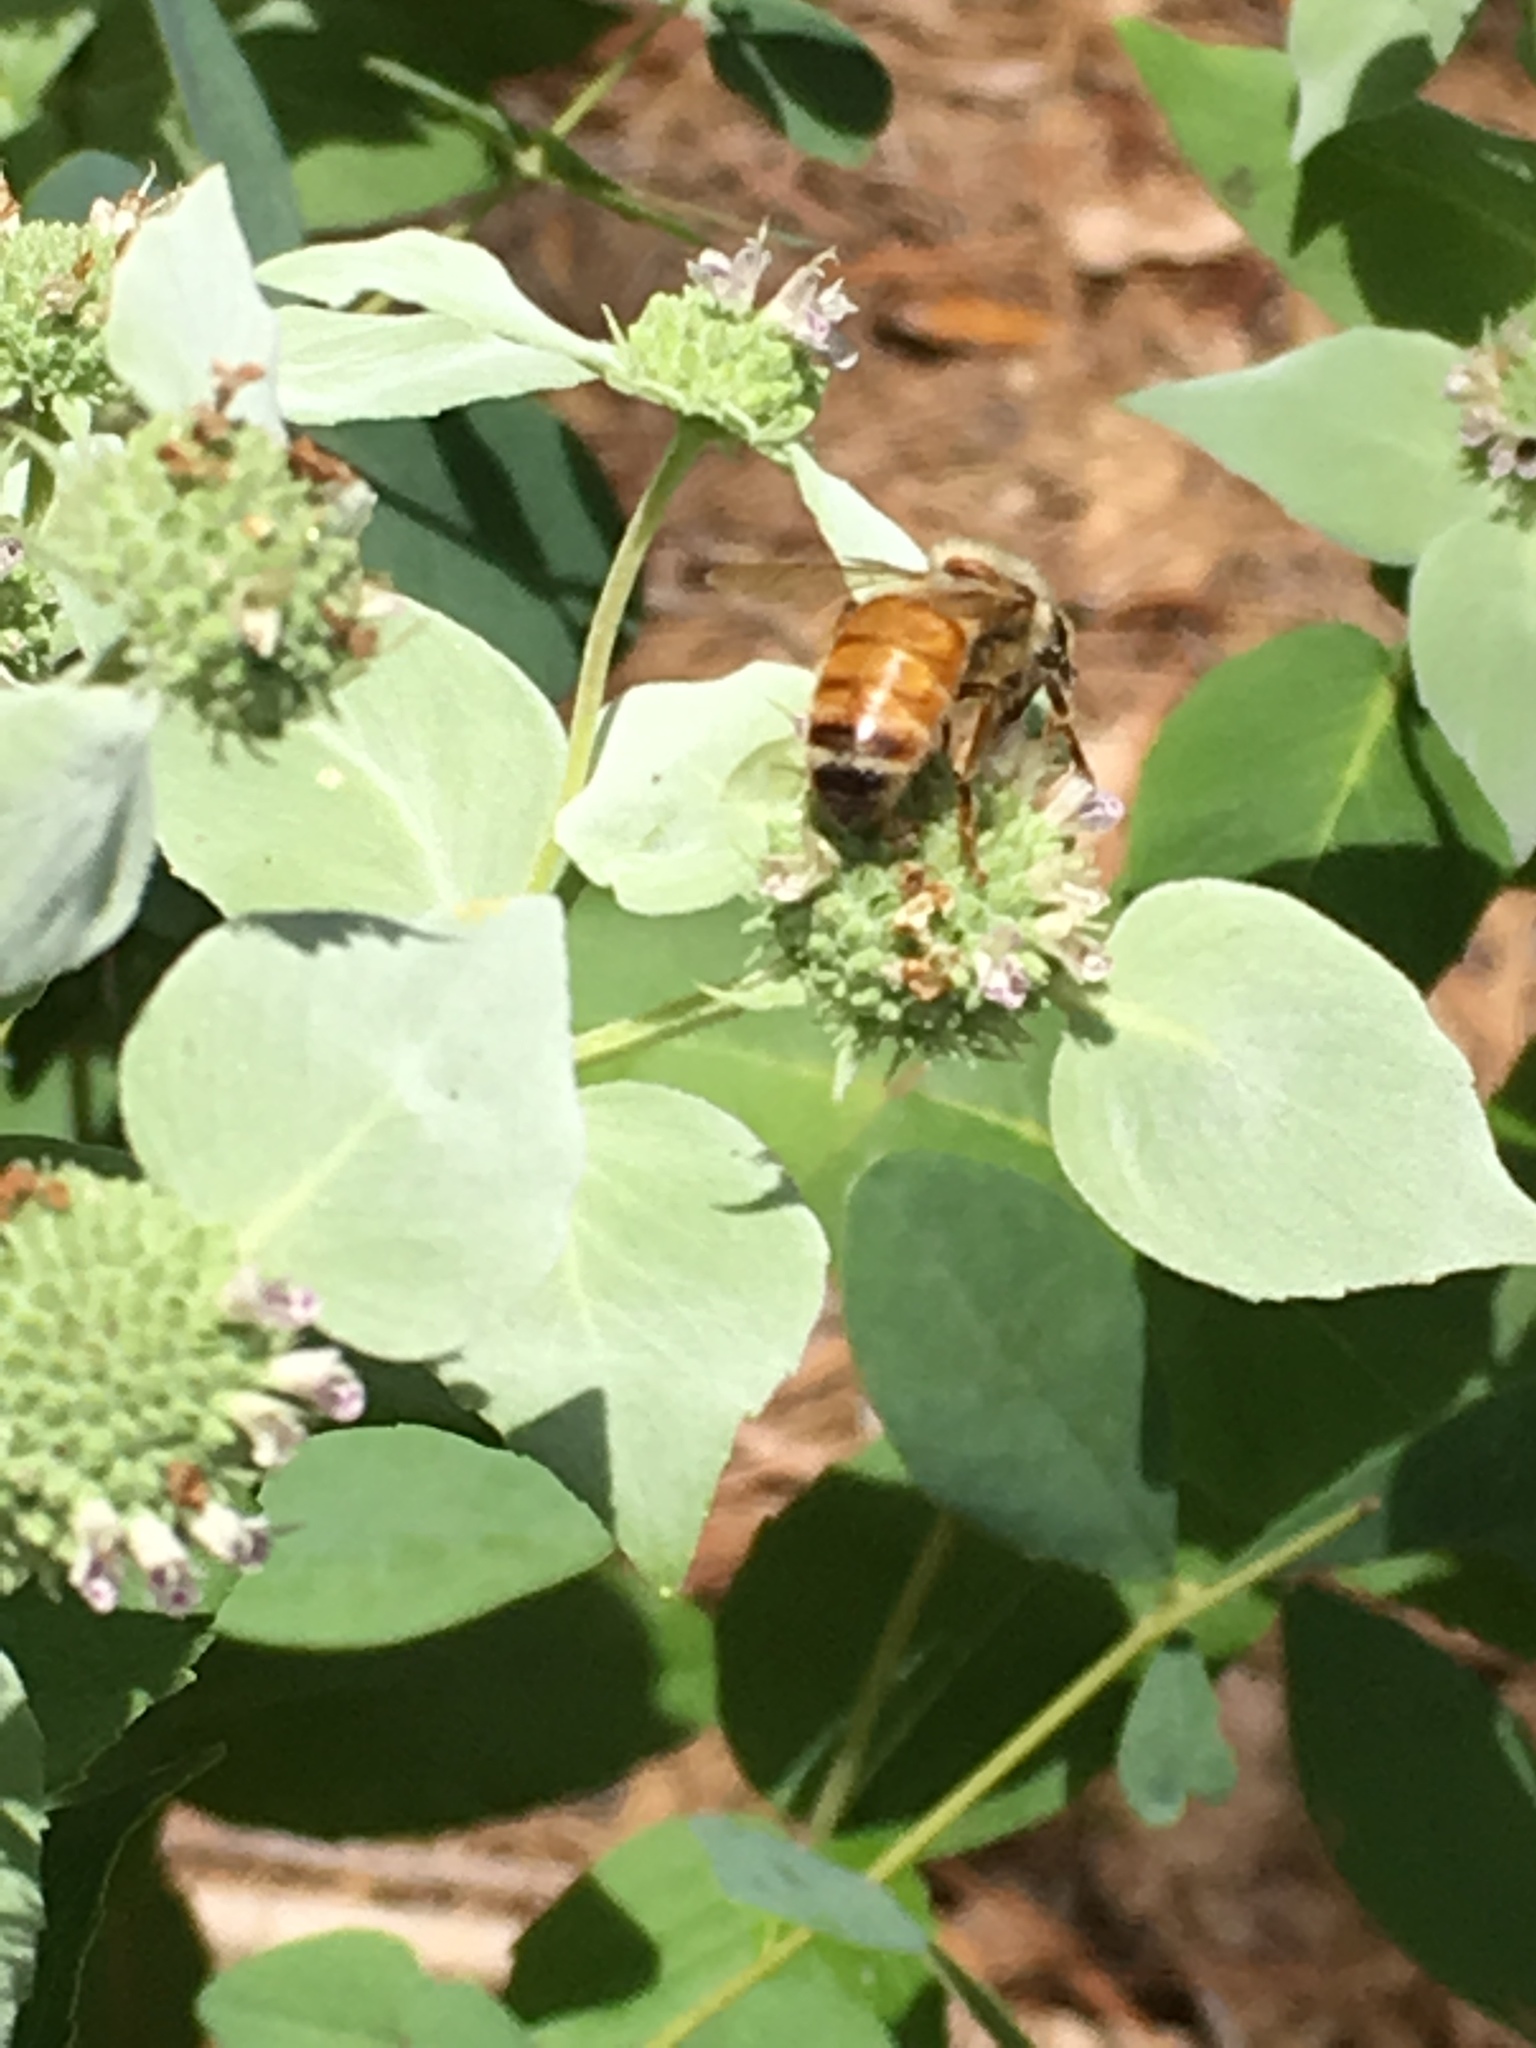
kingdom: Animalia
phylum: Arthropoda
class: Insecta
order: Hymenoptera
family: Apidae
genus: Apis
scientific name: Apis mellifera
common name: Honey bee
